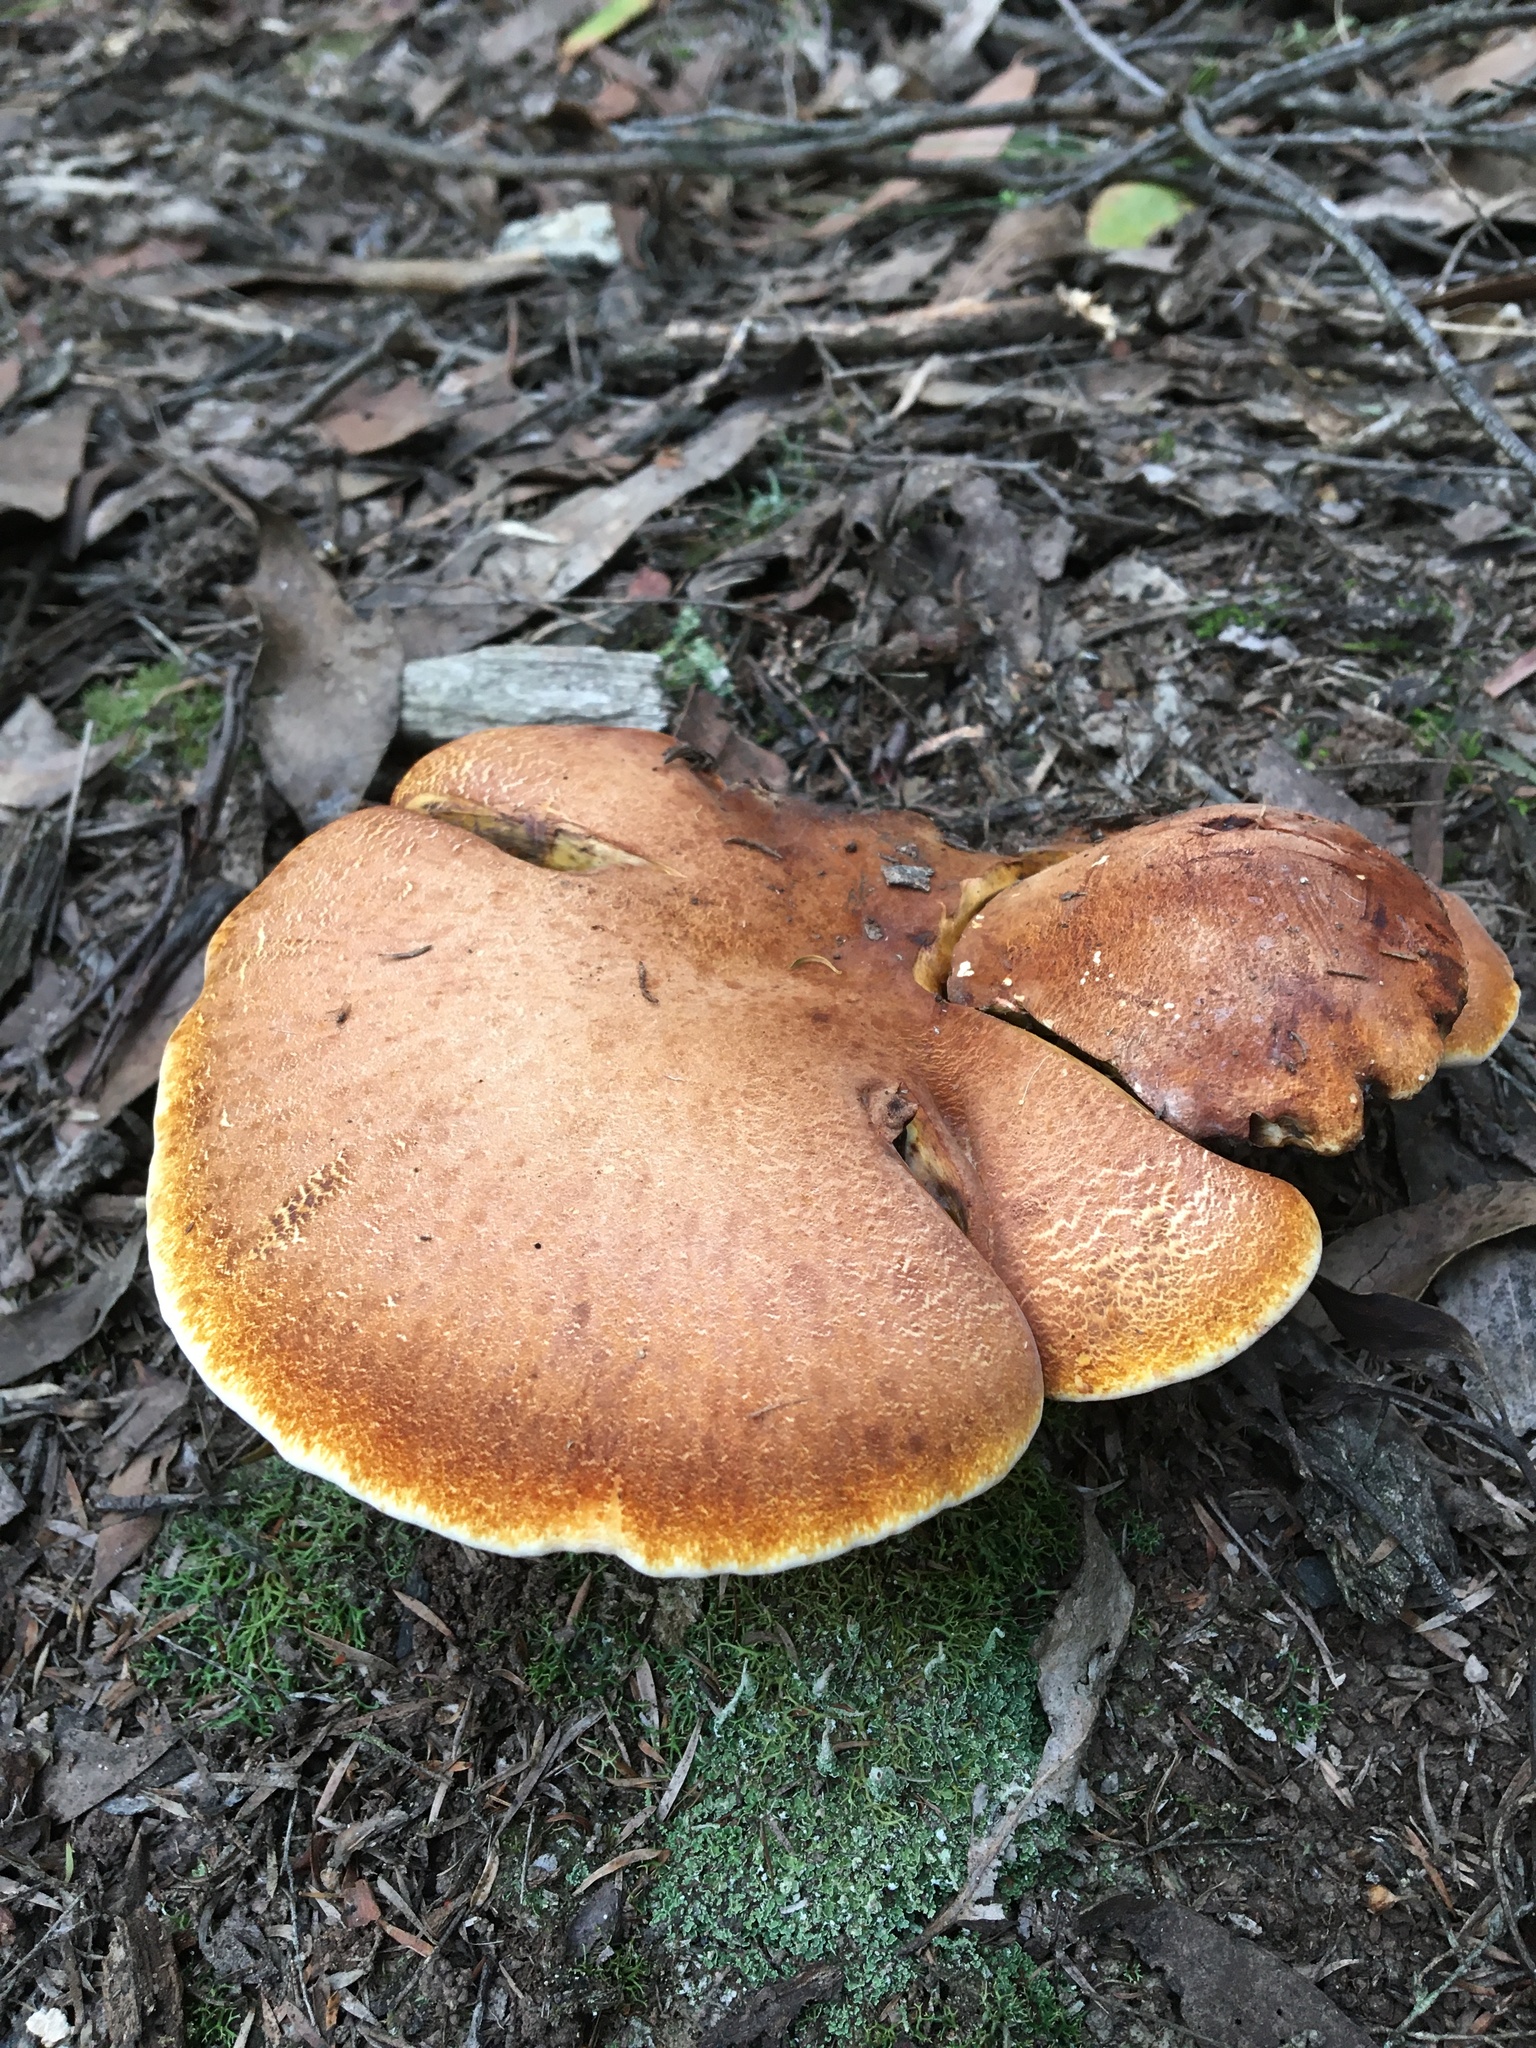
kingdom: Fungi
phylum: Basidiomycota
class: Agaricomycetes
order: Polyporales
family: Fomitopsidaceae
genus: Fomitopsis
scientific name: Fomitopsis
